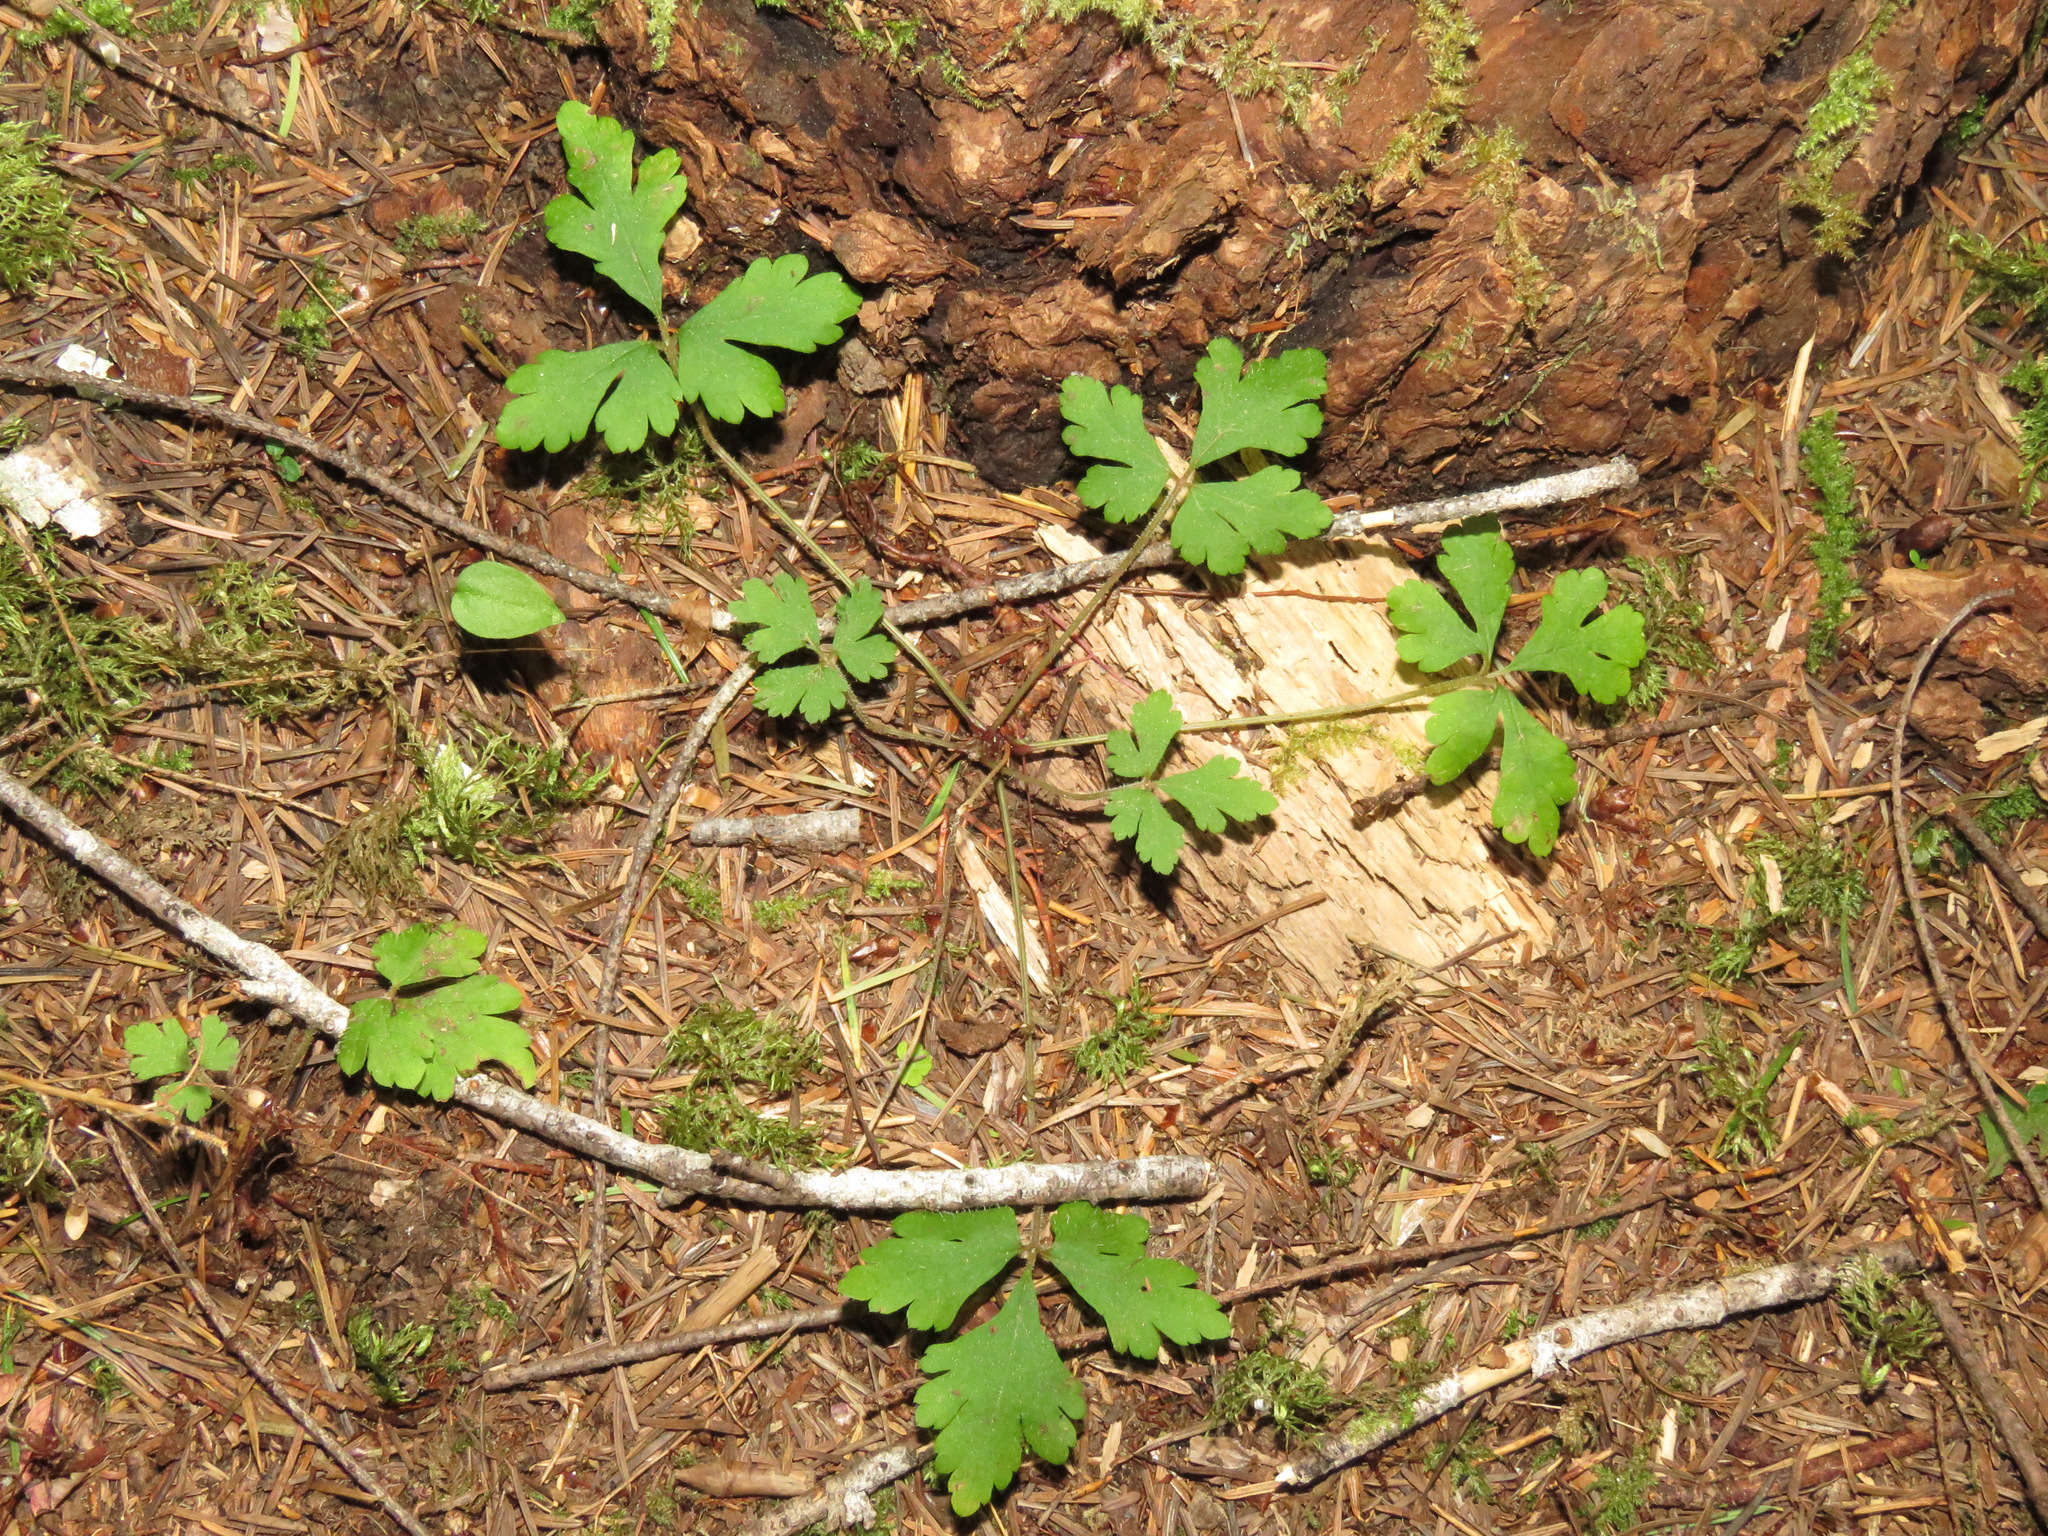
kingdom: Plantae
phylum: Tracheophyta
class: Magnoliopsida
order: Saxifragales
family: Saxifragaceae
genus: Tiarella
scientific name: Tiarella trifoliata
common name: Sugar-scoop
